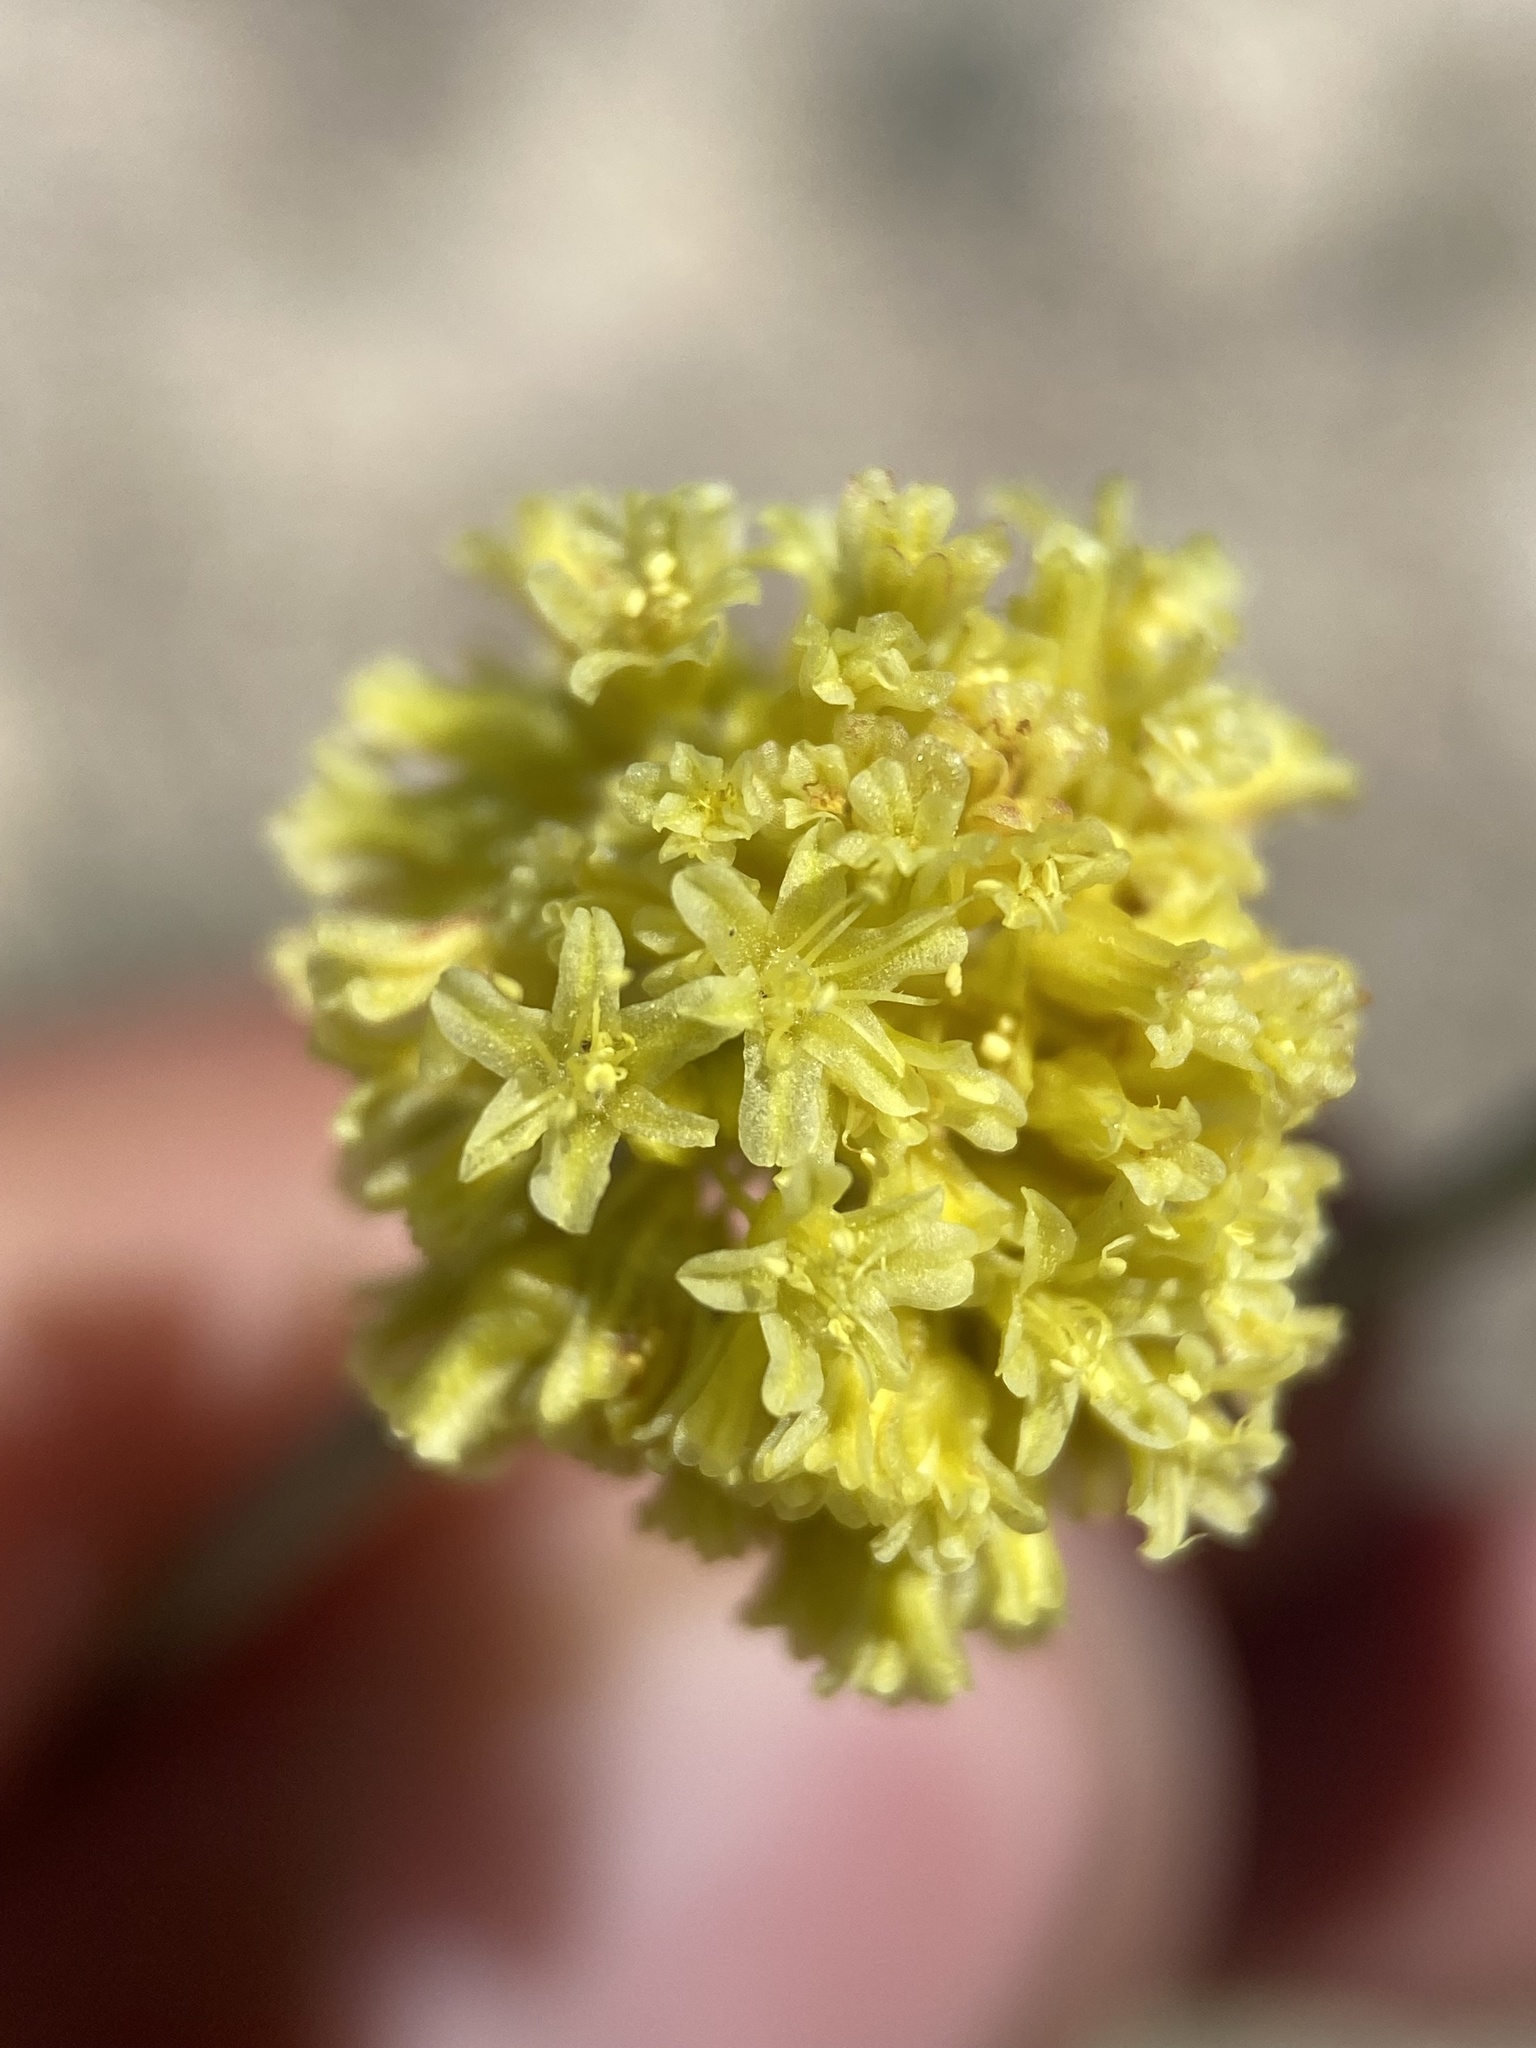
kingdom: Plantae
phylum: Tracheophyta
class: Magnoliopsida
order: Caryophyllales
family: Polygonaceae
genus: Eriogonum
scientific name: Eriogonum desertorum
